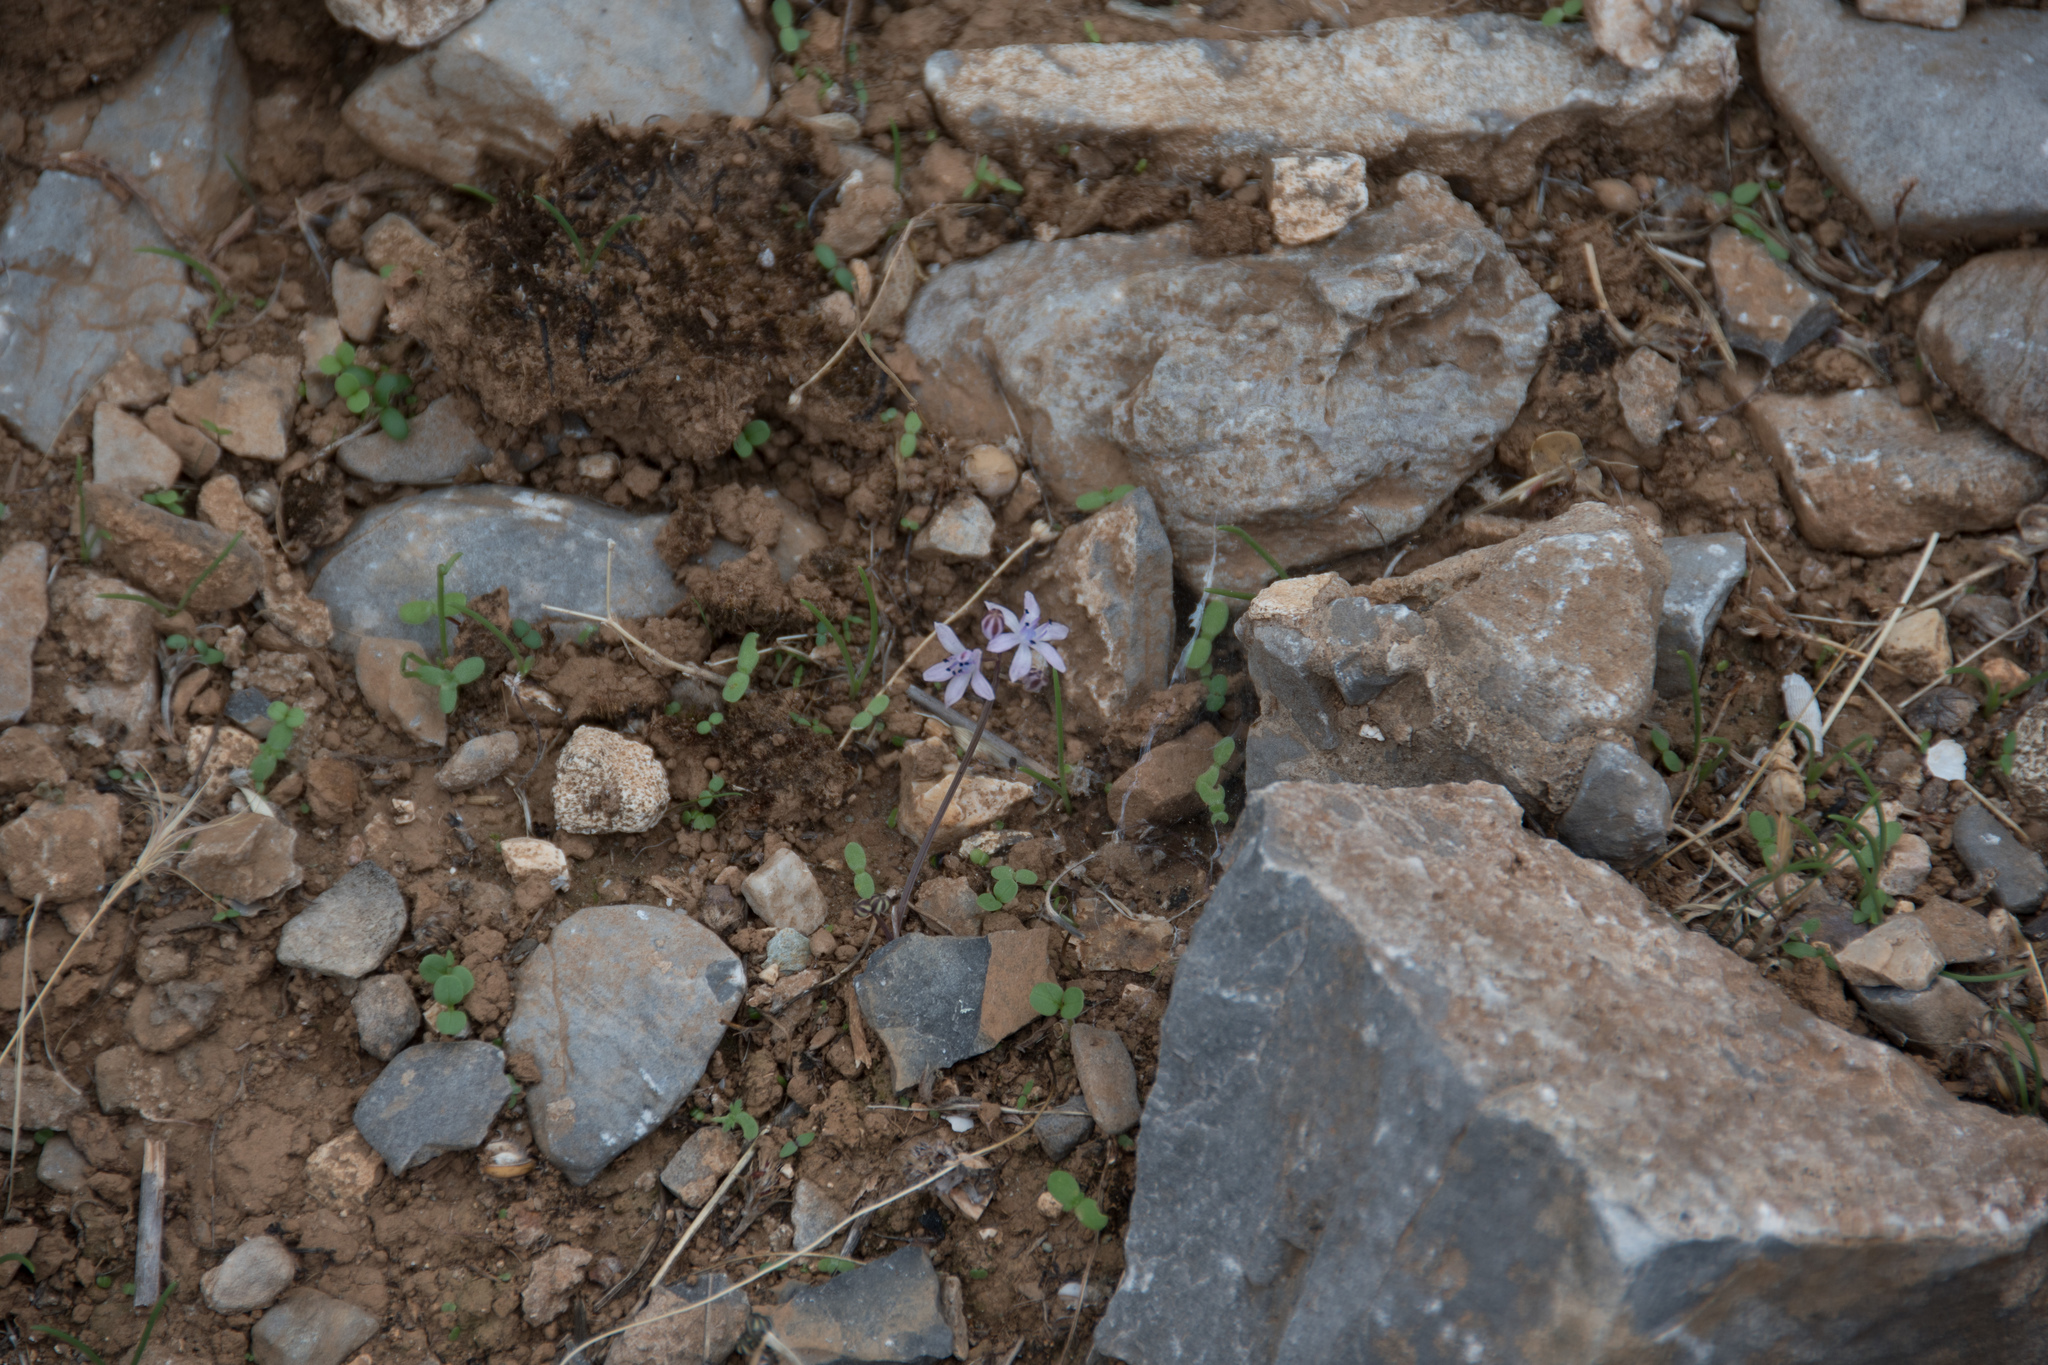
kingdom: Plantae
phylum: Tracheophyta
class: Liliopsida
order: Asparagales
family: Asparagaceae
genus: Prospero
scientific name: Prospero hierapytnense
